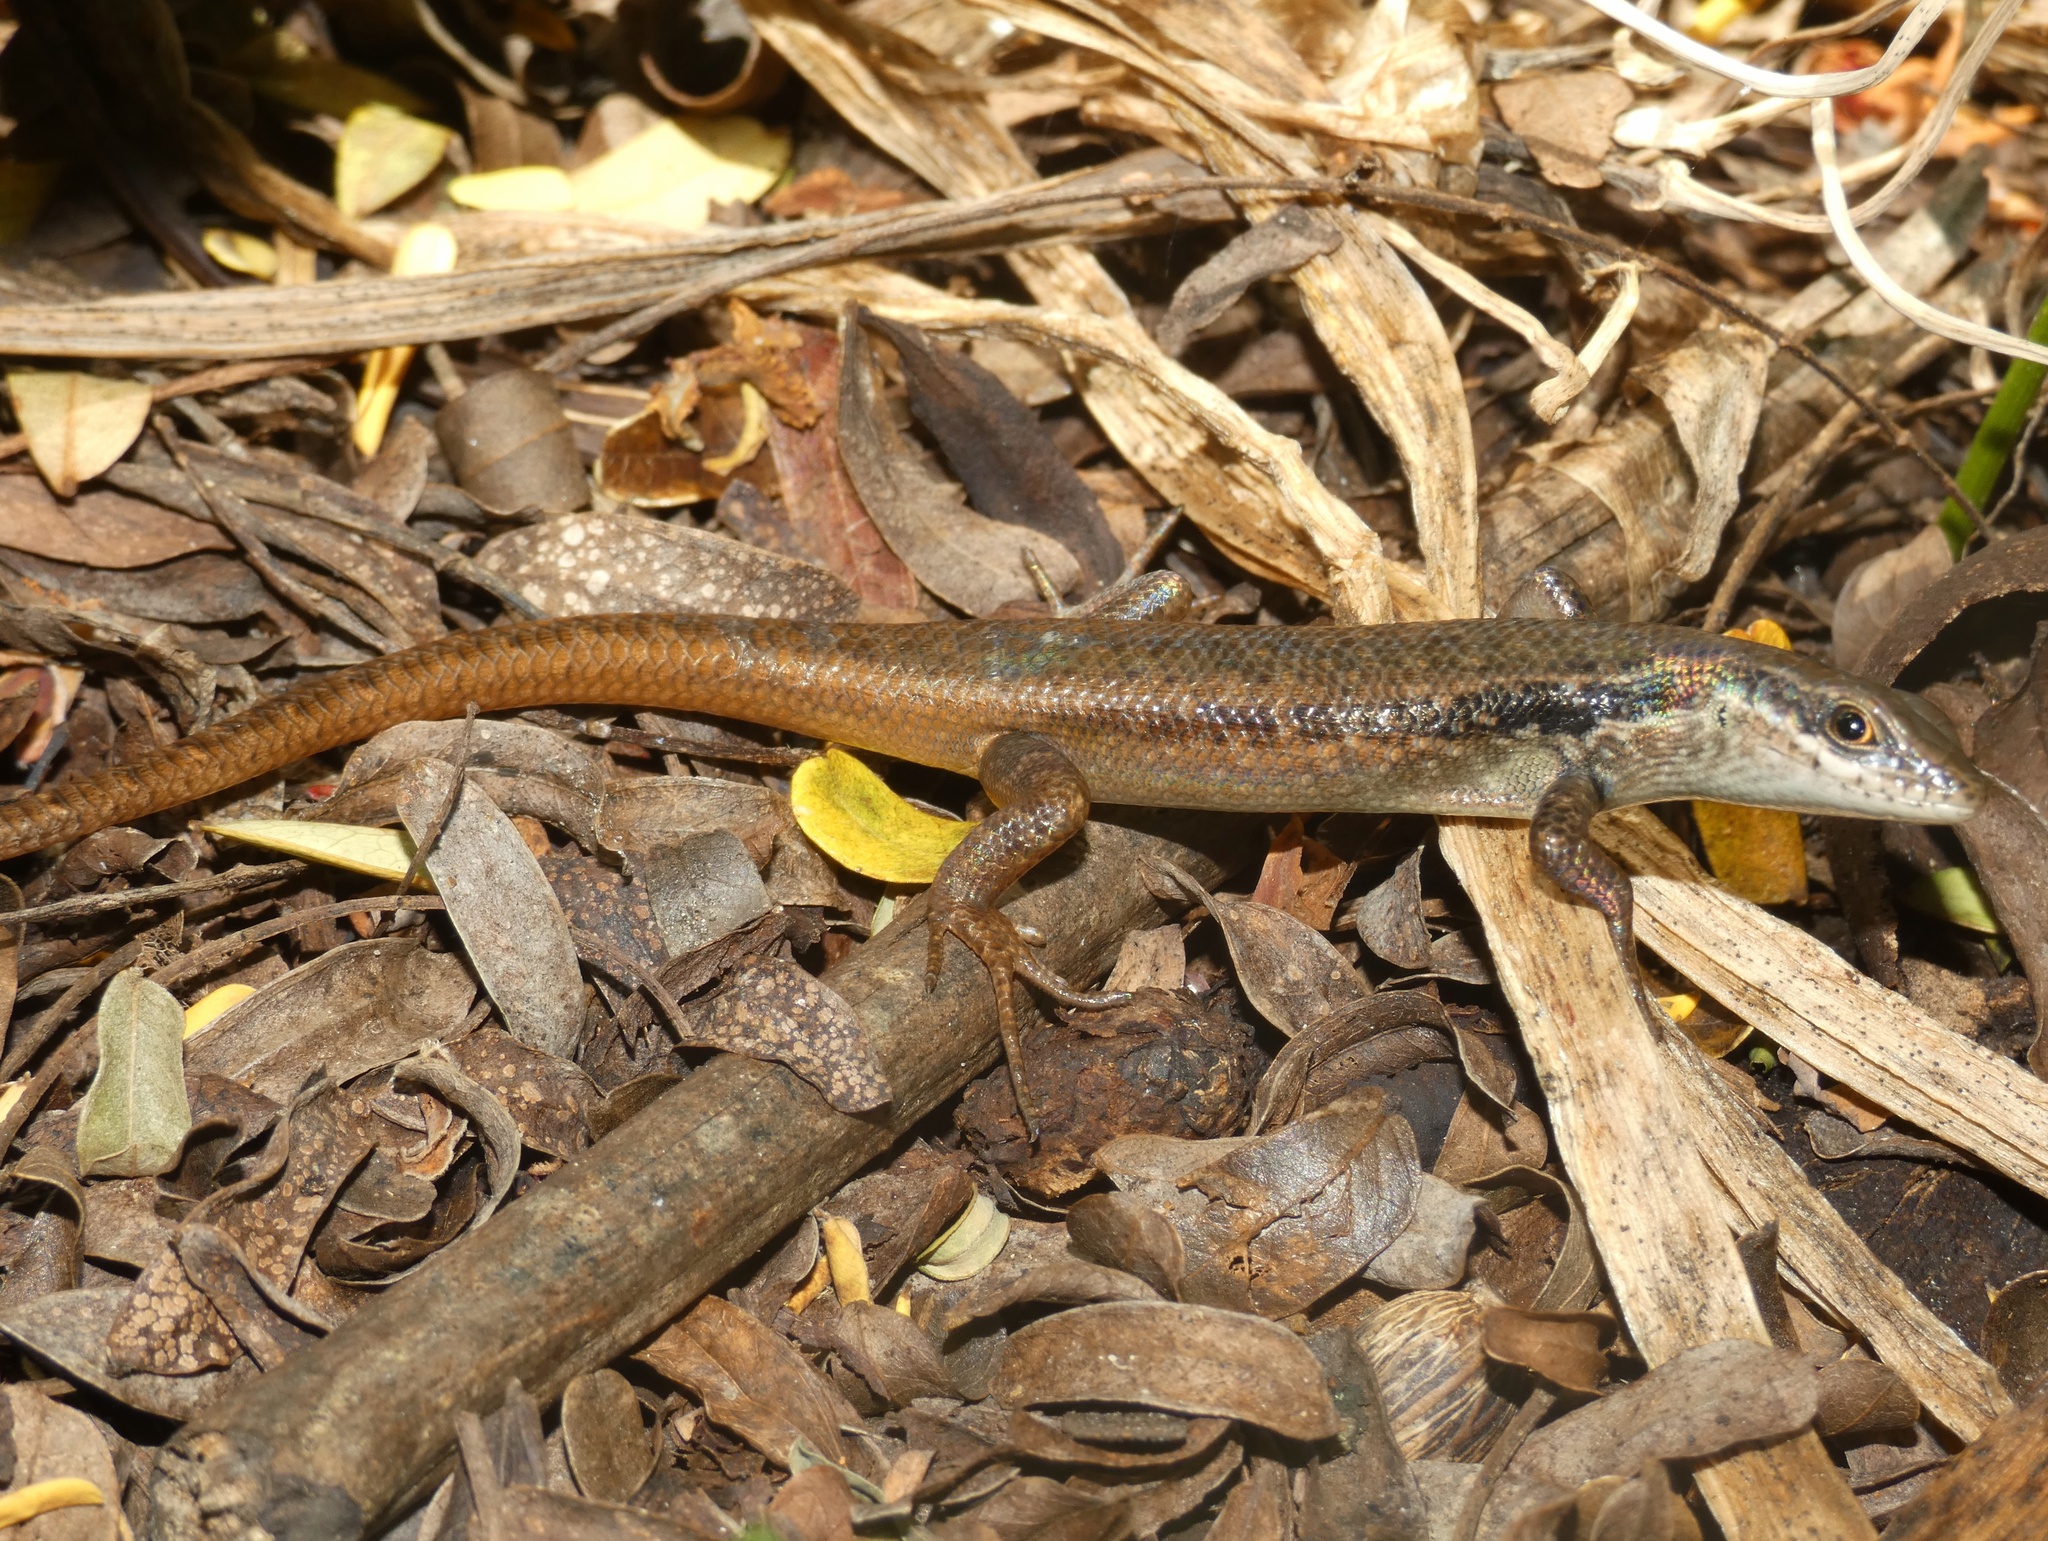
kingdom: Animalia
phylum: Chordata
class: Squamata
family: Scincidae
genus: Carlia
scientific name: Carlia longipes
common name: Closed-litter rainbow-skink
